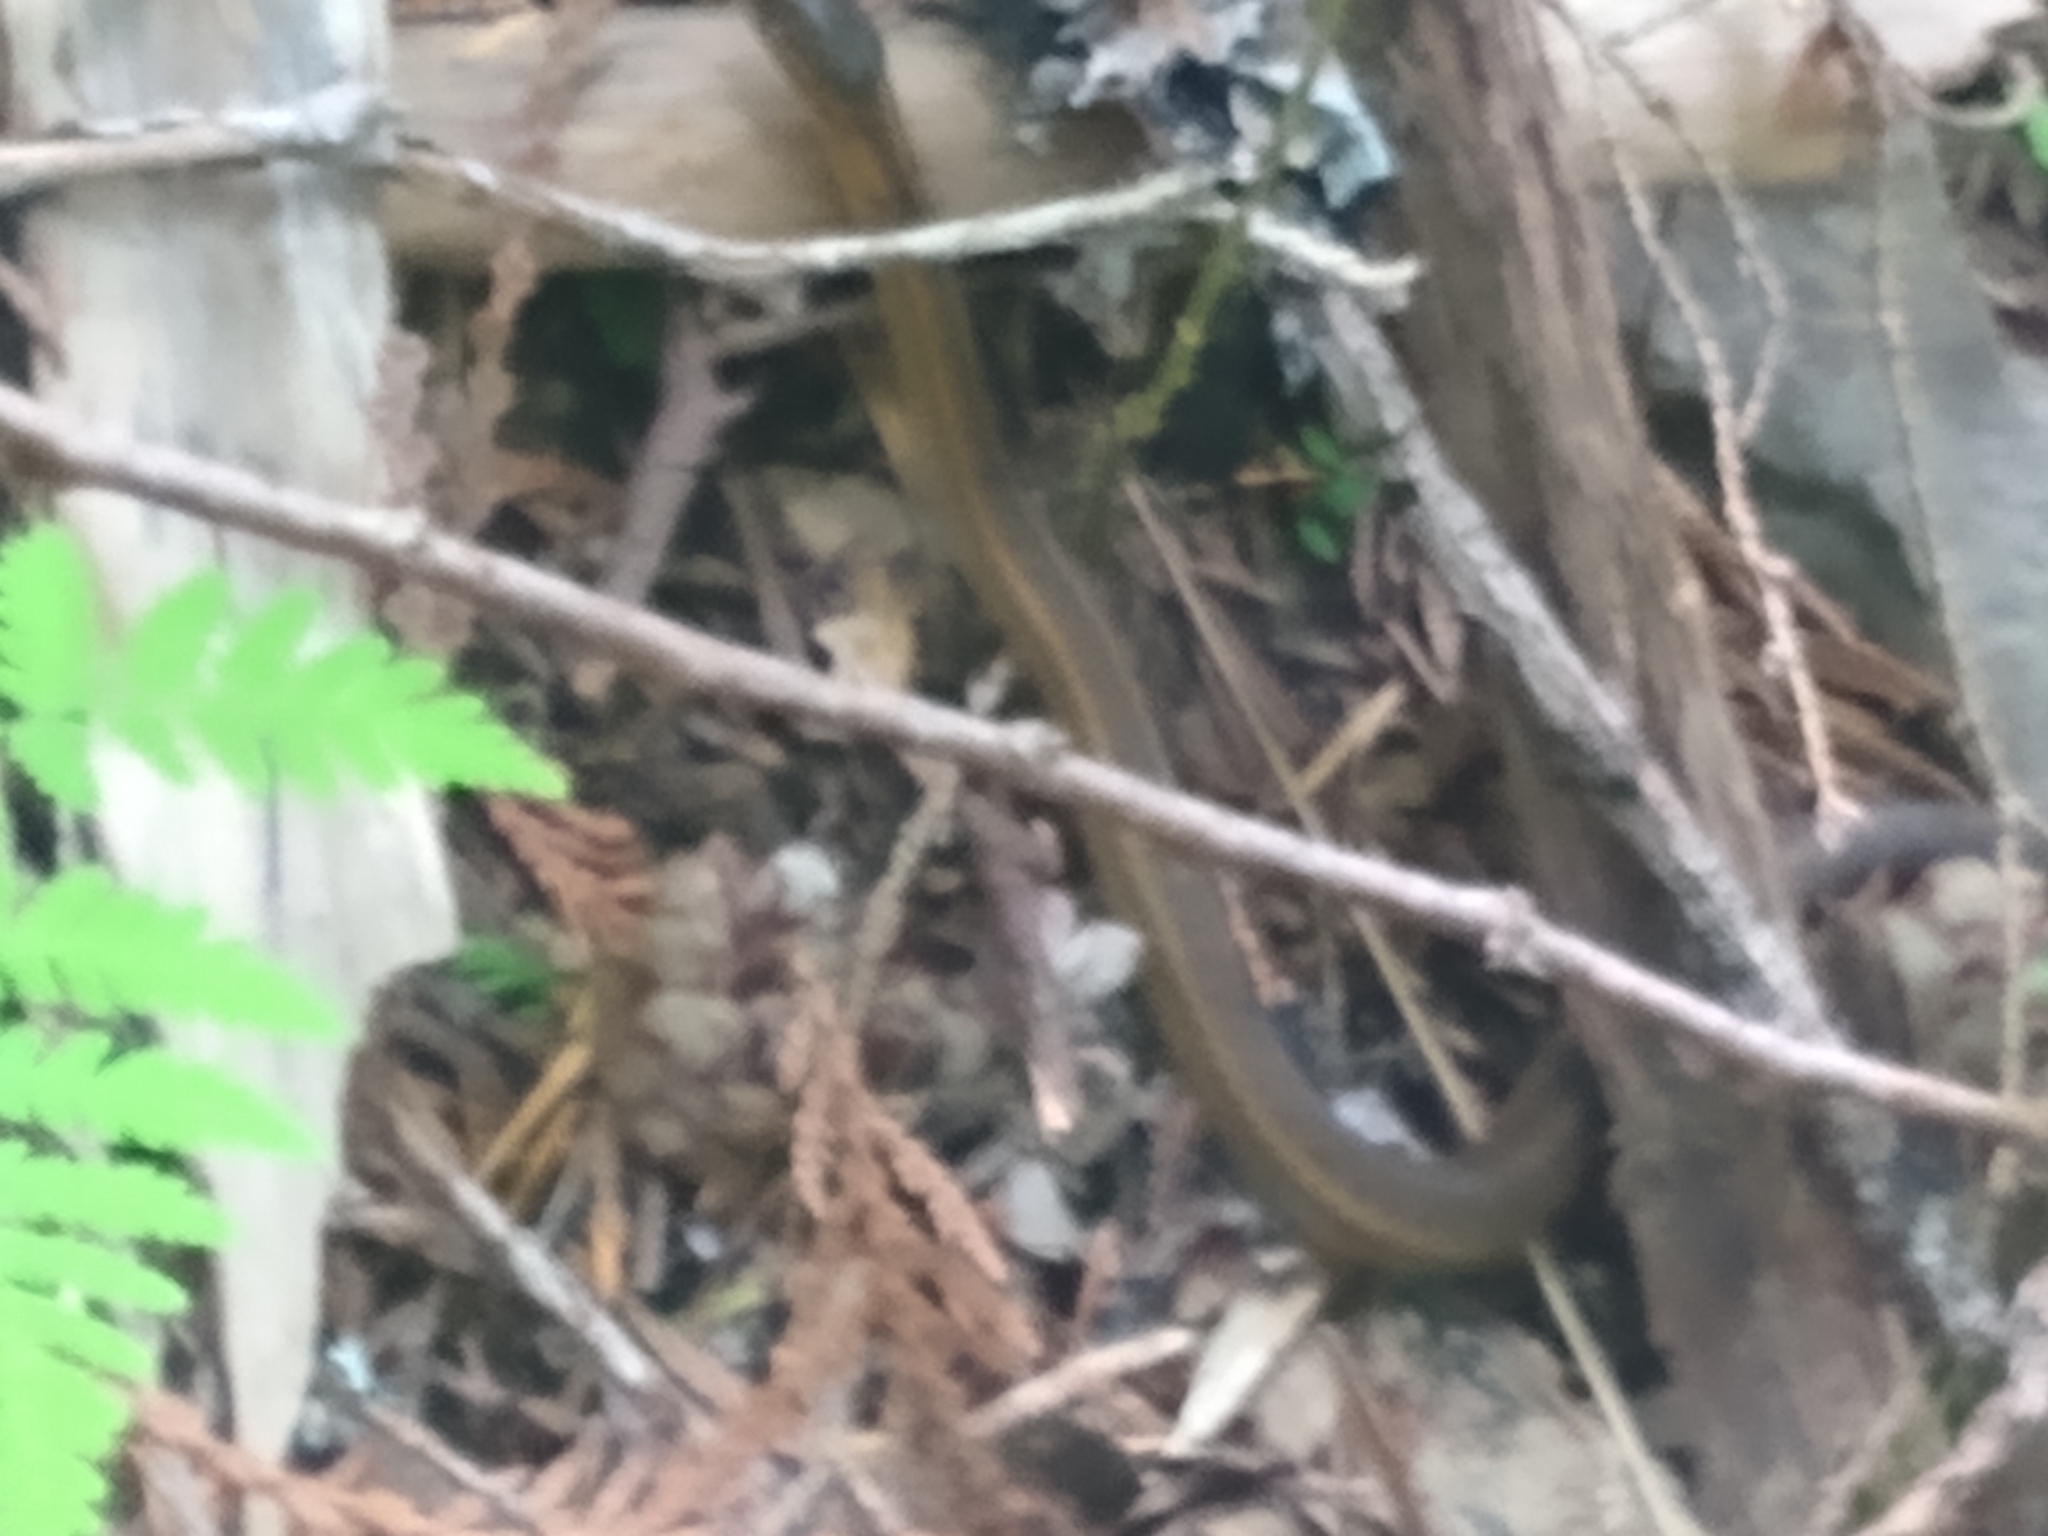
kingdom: Animalia
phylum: Chordata
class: Squamata
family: Colubridae
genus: Thamnophis
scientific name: Thamnophis elegans
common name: Western terrestrial garter snake
